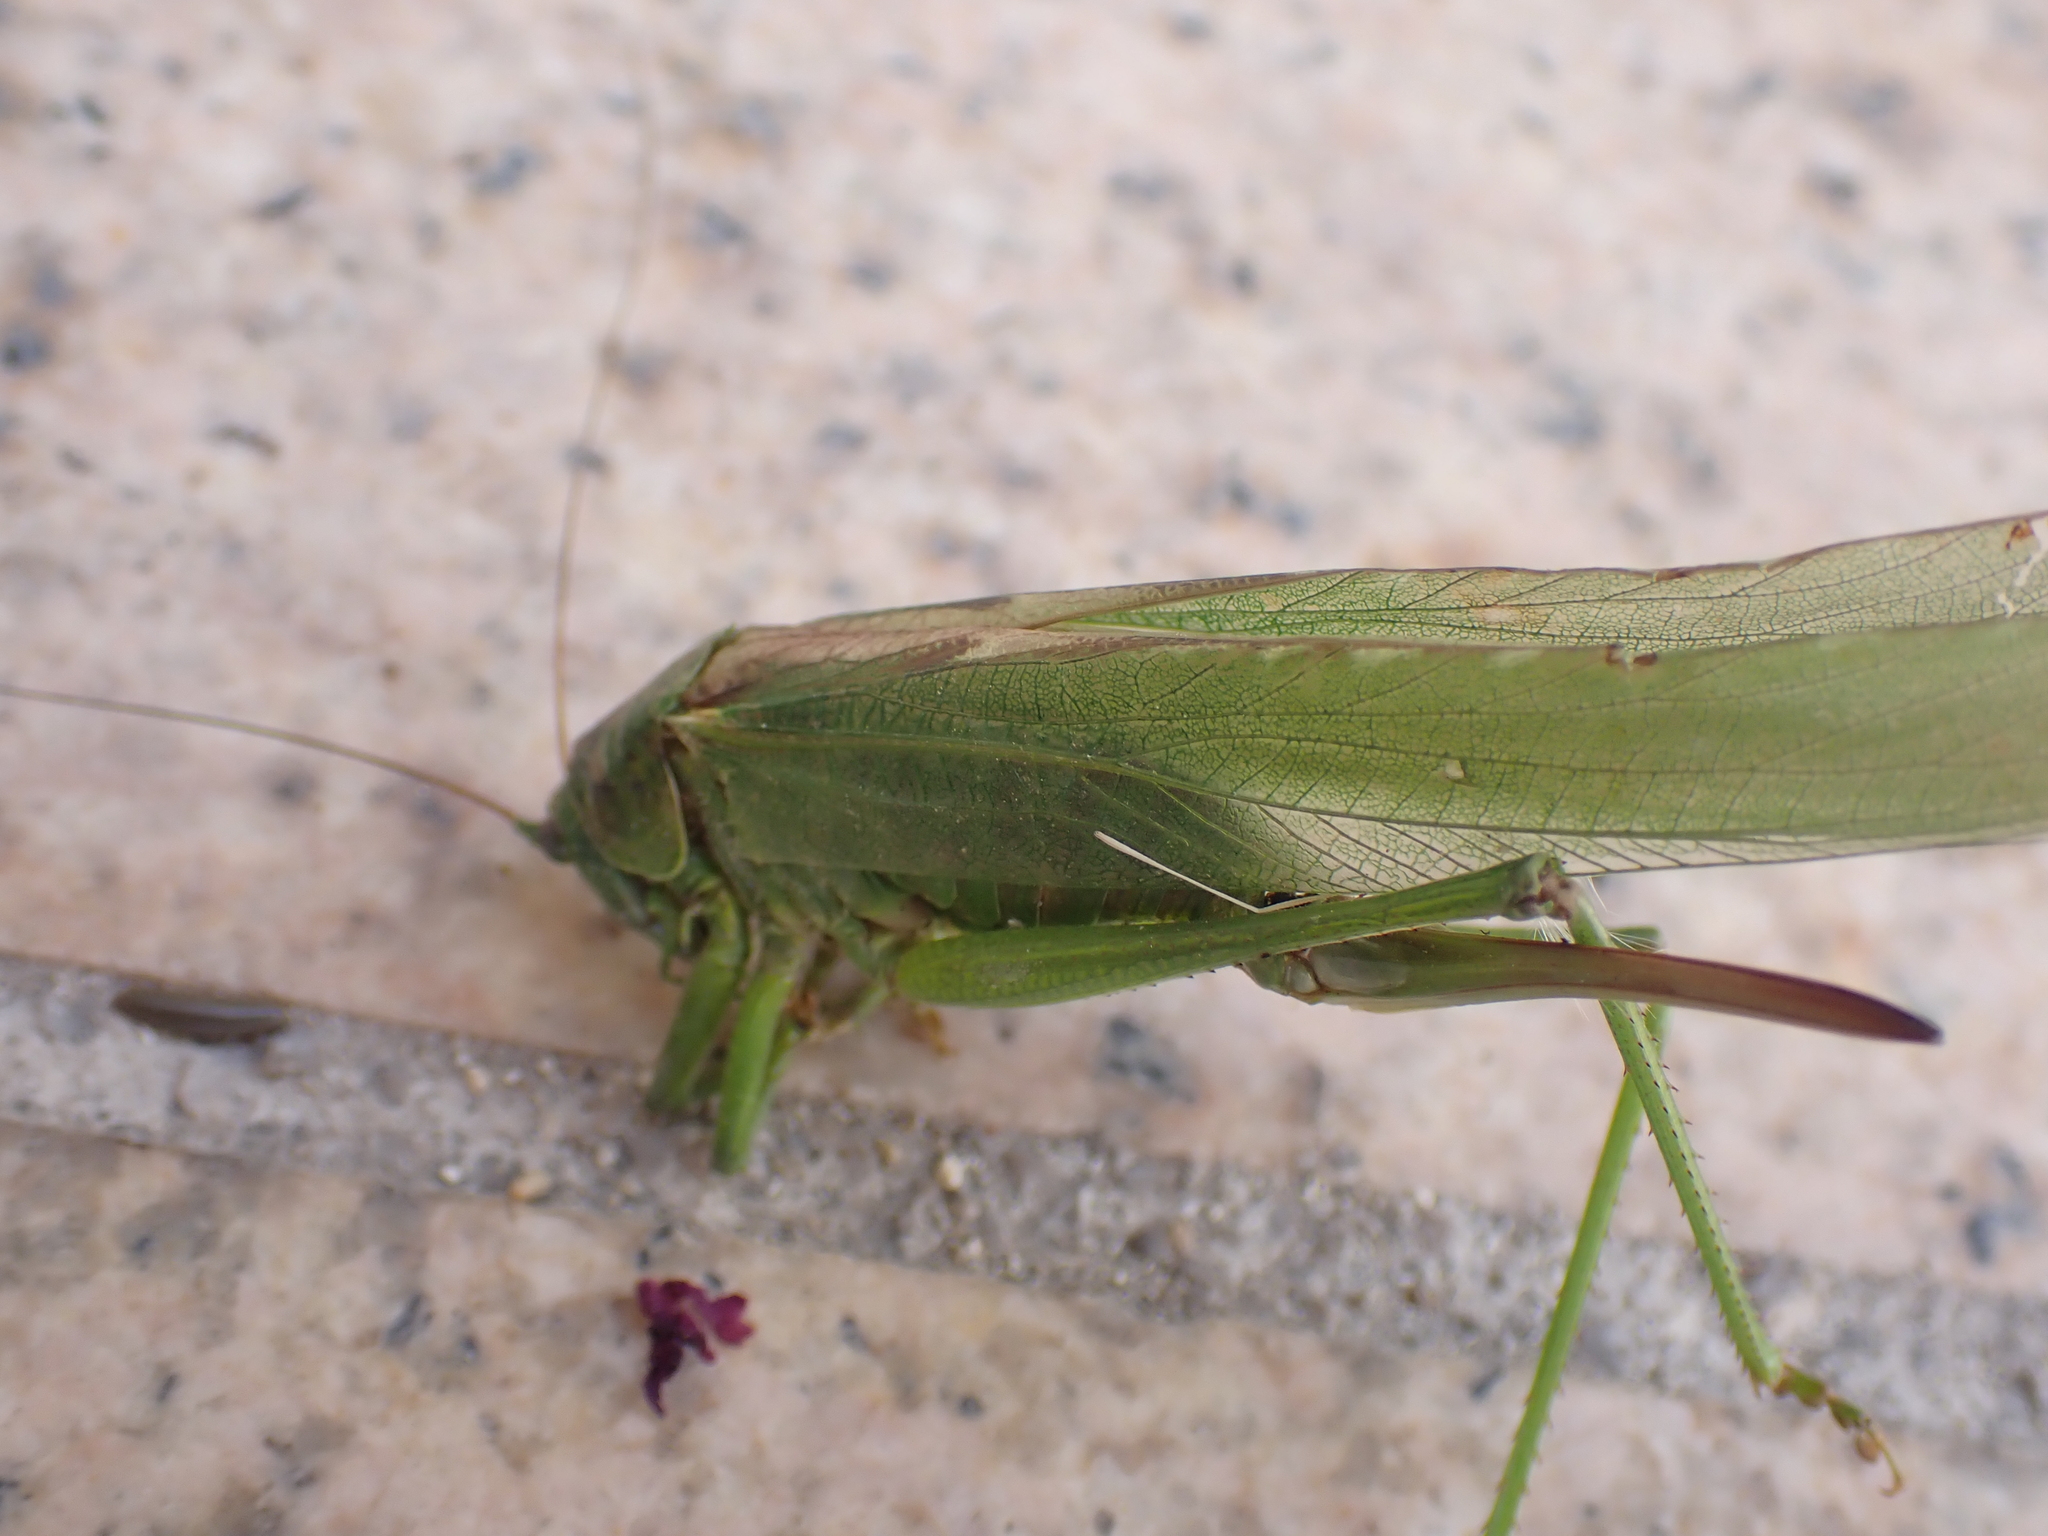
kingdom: Animalia
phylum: Arthropoda
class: Insecta
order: Orthoptera
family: Tettigoniidae
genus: Tettigonia
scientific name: Tettigonia viridissima
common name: Great green bush-cricket
